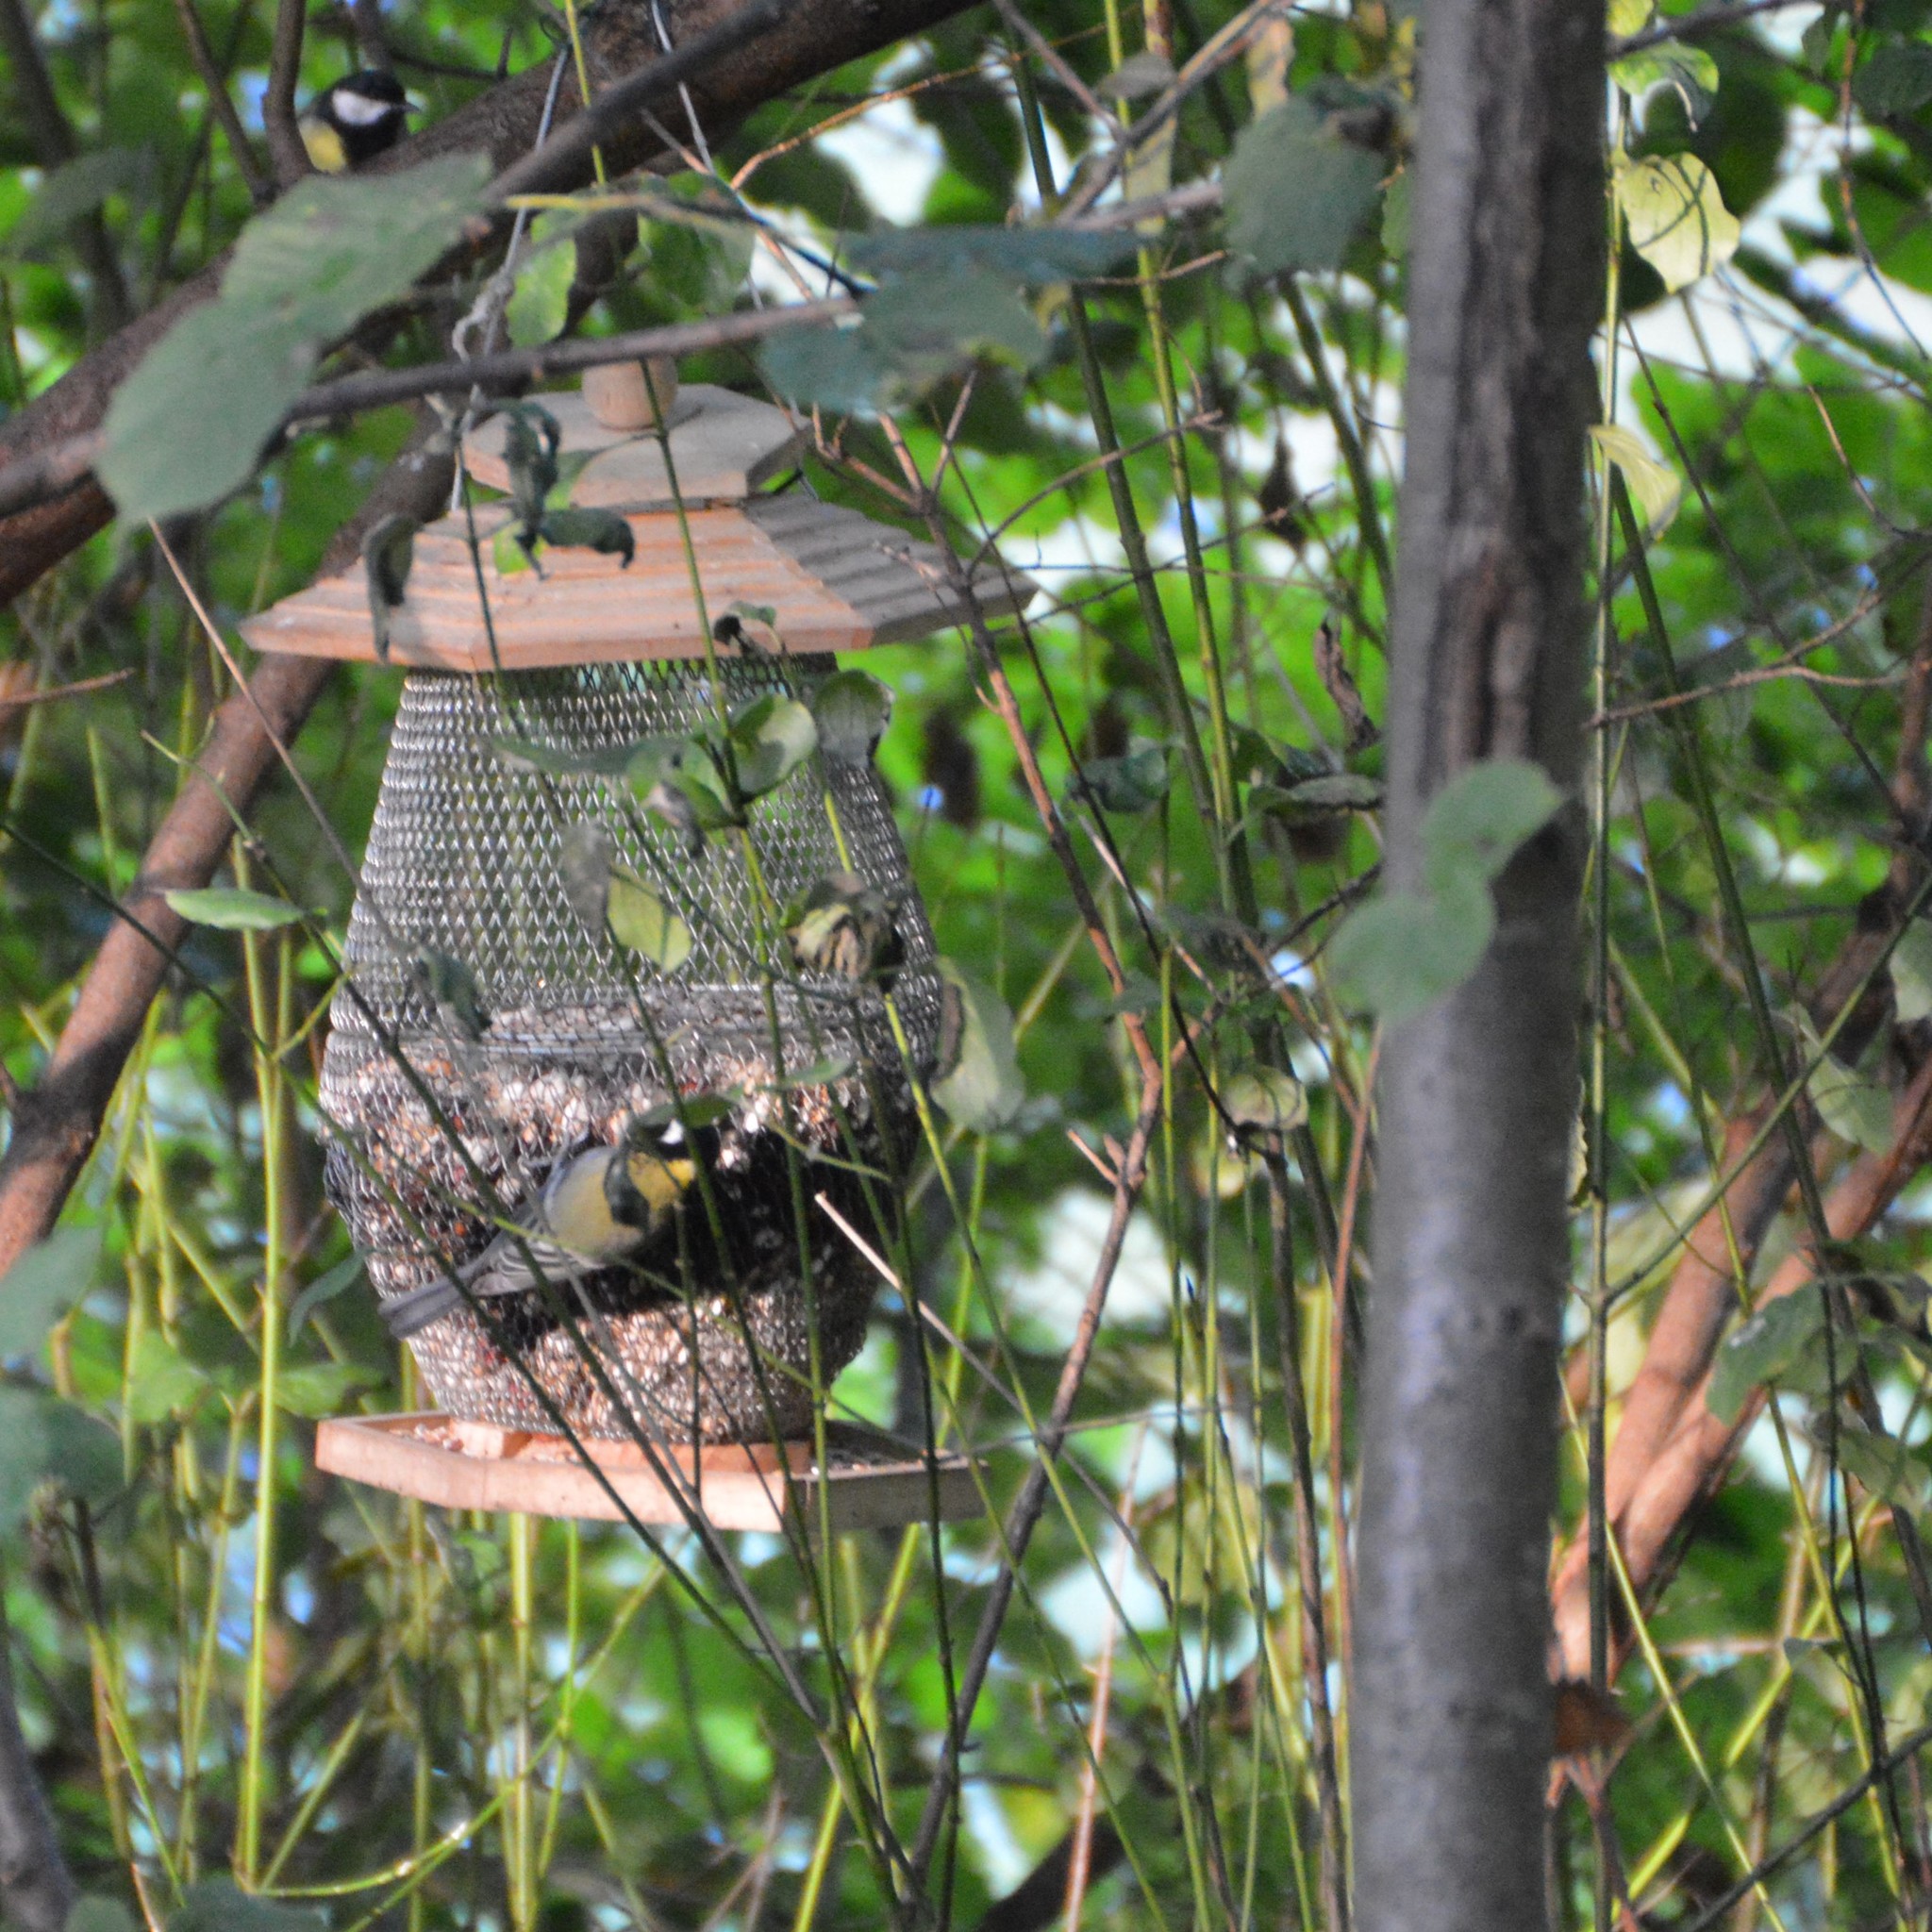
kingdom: Animalia
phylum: Chordata
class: Aves
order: Passeriformes
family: Paridae
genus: Parus
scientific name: Parus major
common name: Great tit
